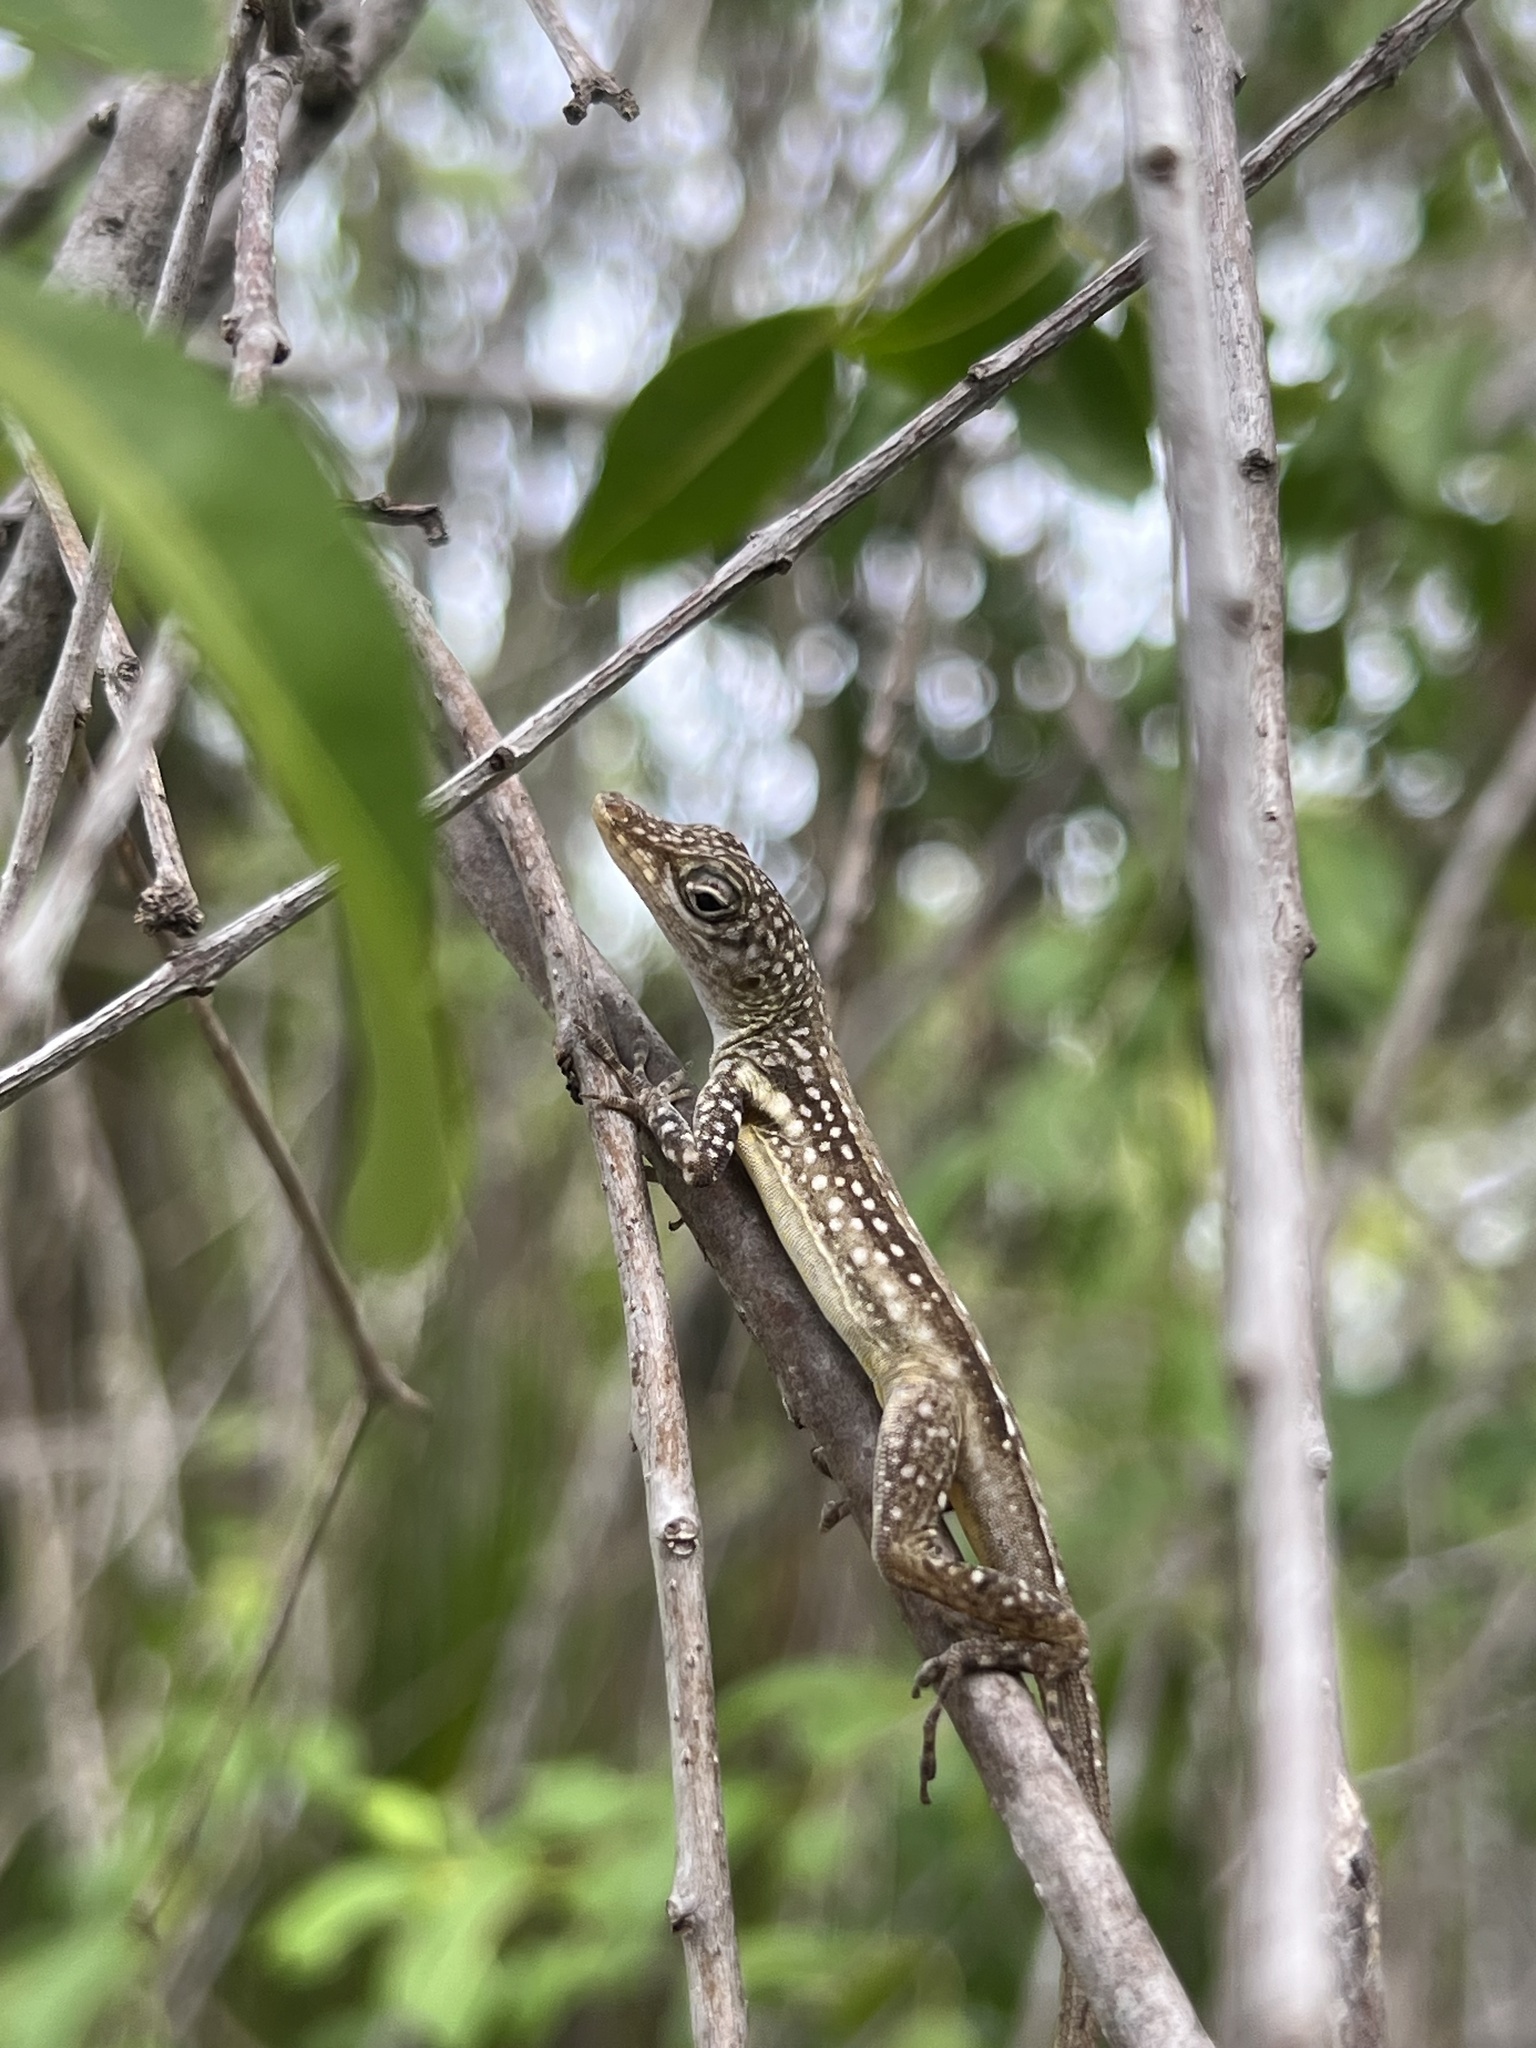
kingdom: Animalia
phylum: Chordata
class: Squamata
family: Dactyloidae
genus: Anolis
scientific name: Anolis conspersus
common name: Grand cayman anole
